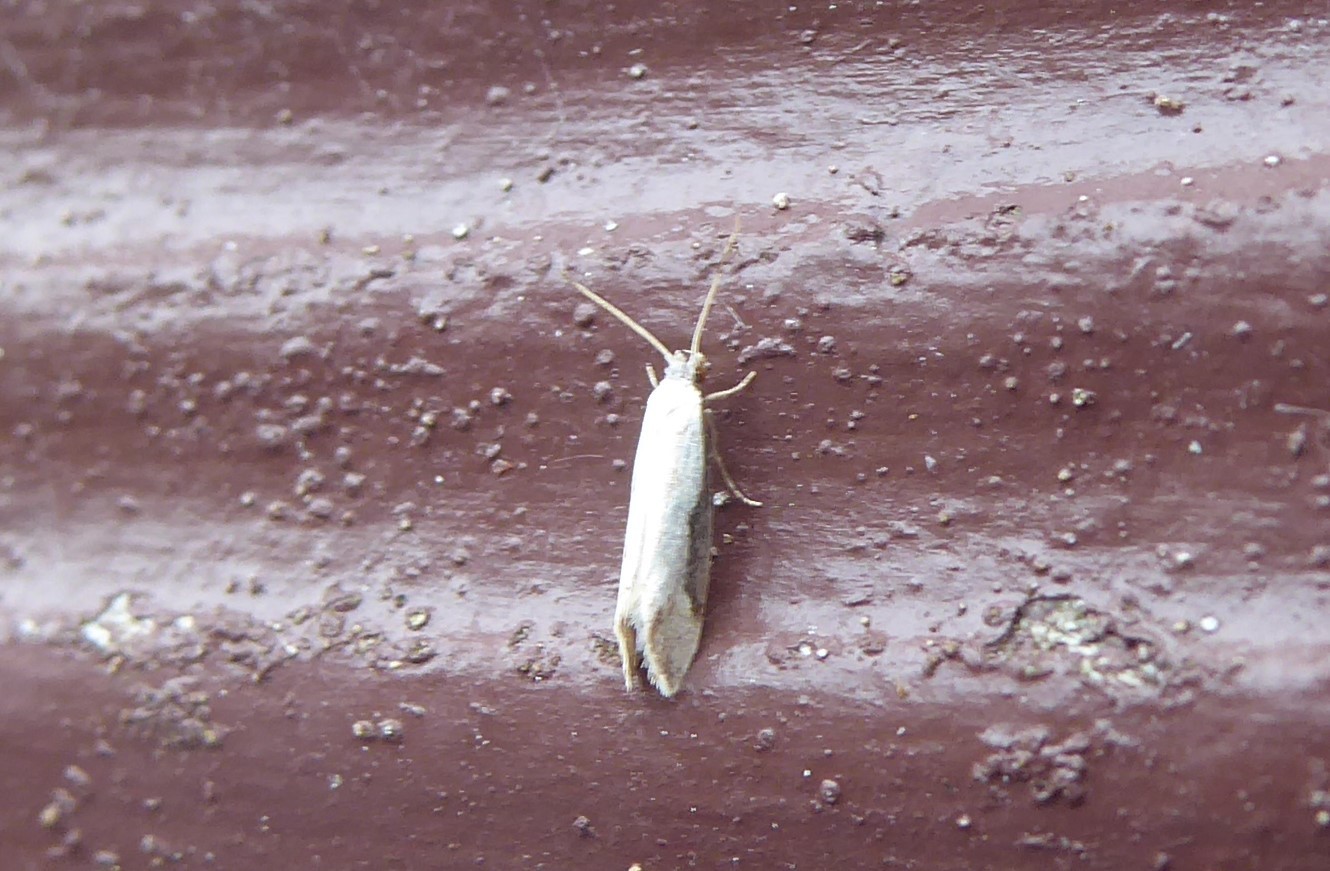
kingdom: Animalia
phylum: Arthropoda
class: Insecta
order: Lepidoptera
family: Tineidae
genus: Sagephora
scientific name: Sagephora phortegella
